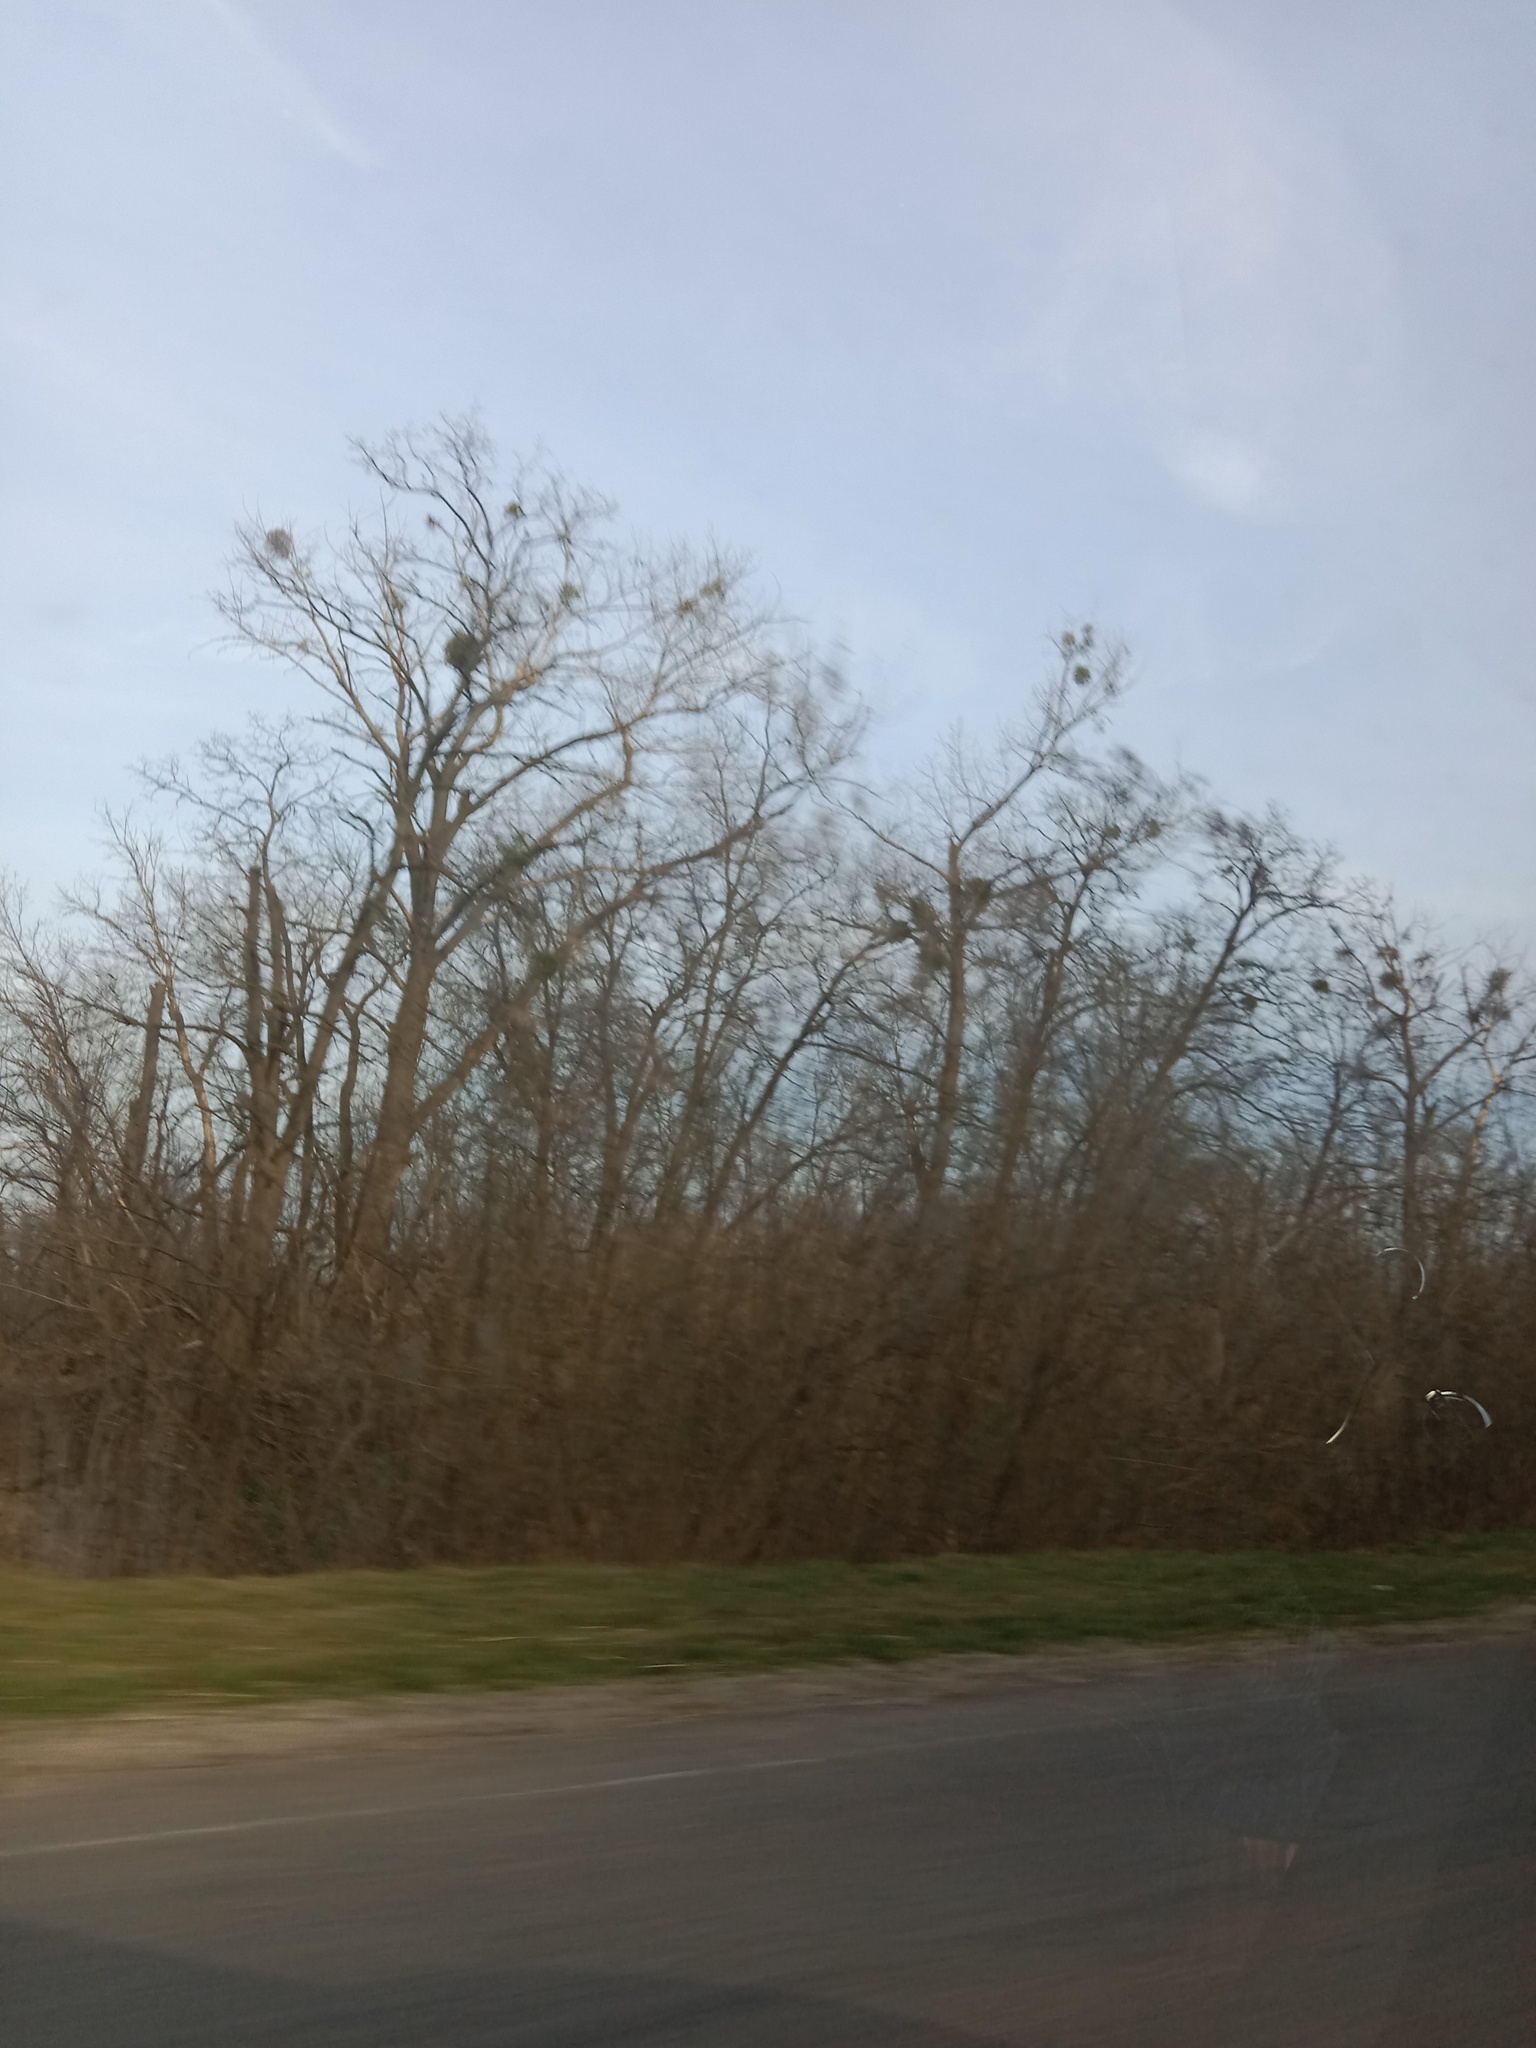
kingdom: Plantae
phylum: Tracheophyta
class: Magnoliopsida
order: Santalales
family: Viscaceae
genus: Viscum
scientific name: Viscum album
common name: Mistletoe
